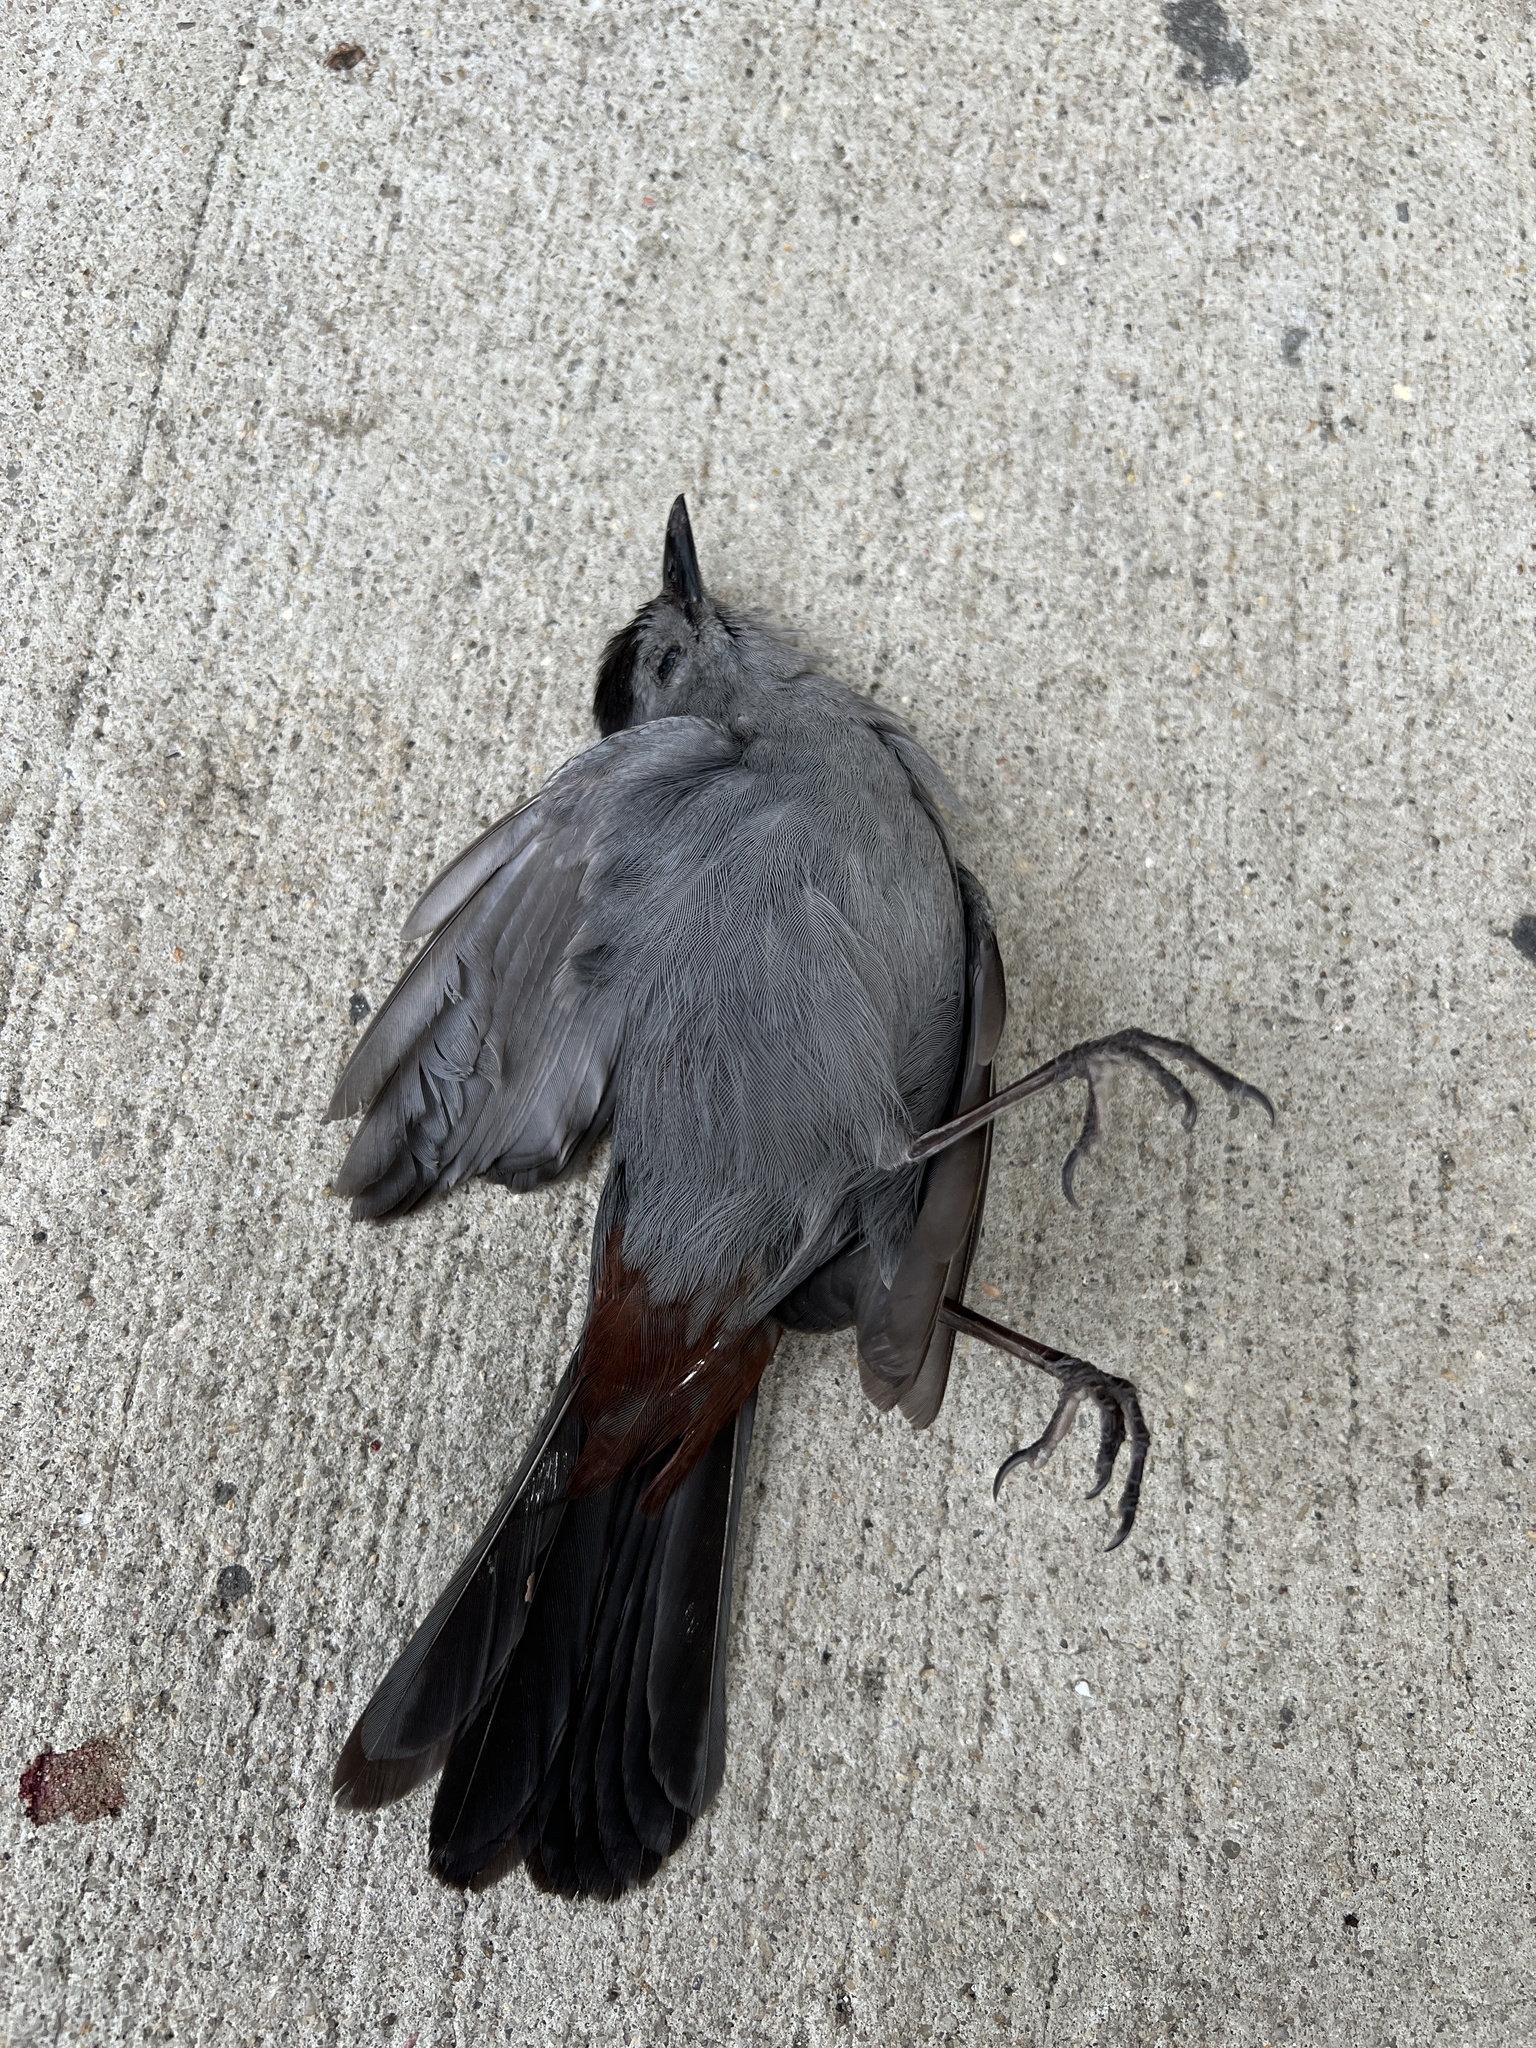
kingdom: Animalia
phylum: Chordata
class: Aves
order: Passeriformes
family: Mimidae
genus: Dumetella
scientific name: Dumetella carolinensis
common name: Gray catbird
